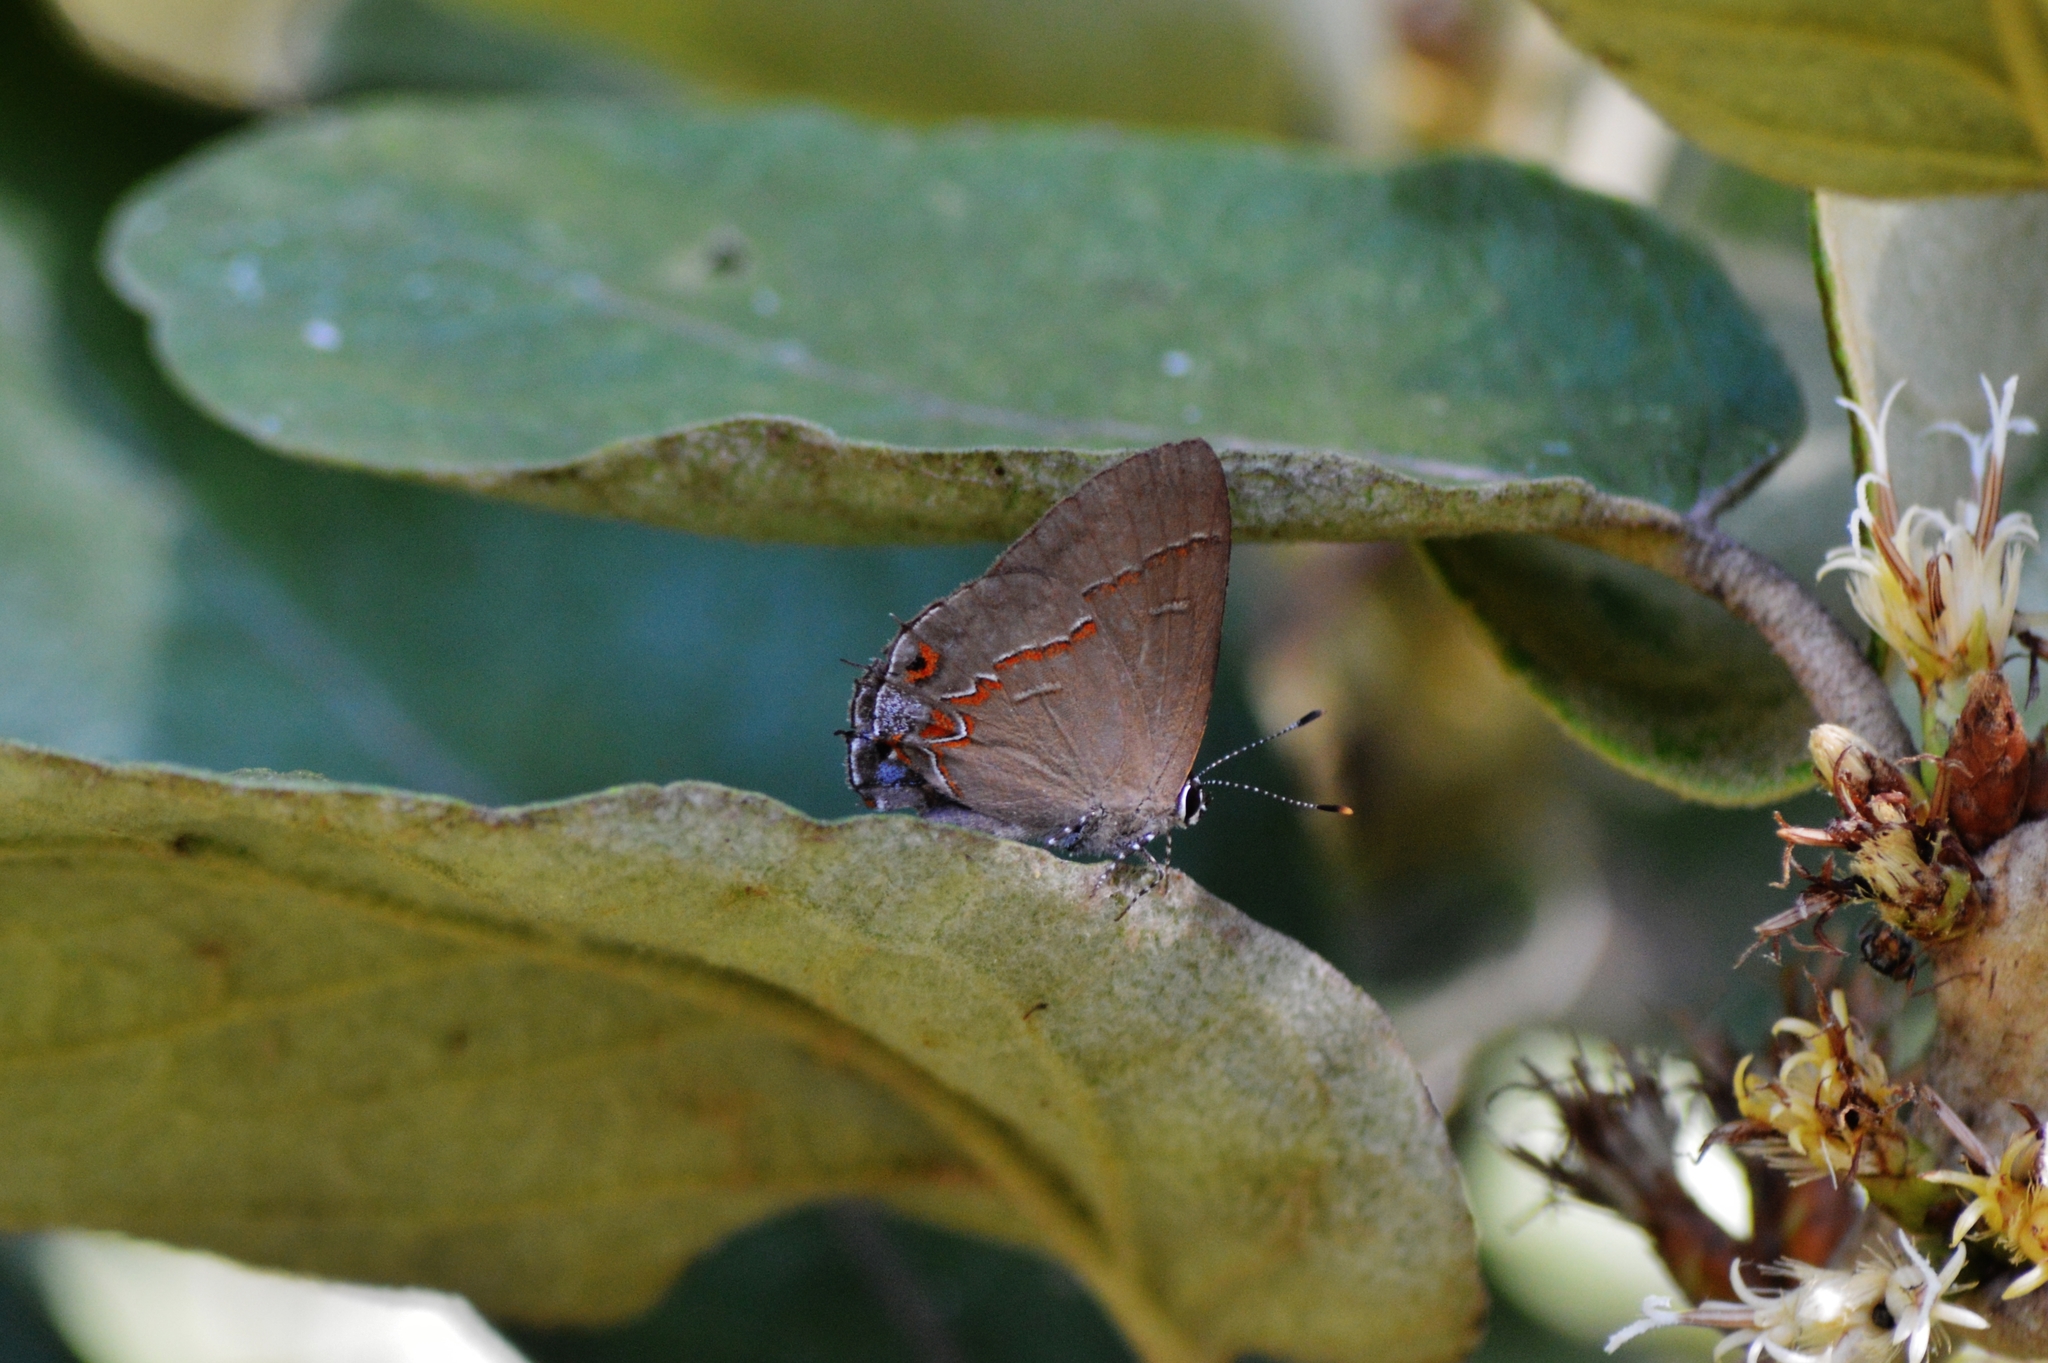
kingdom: Animalia
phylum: Arthropoda
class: Insecta
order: Lepidoptera
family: Lycaenidae
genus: Calycopis
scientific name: Calycopis caulonia
